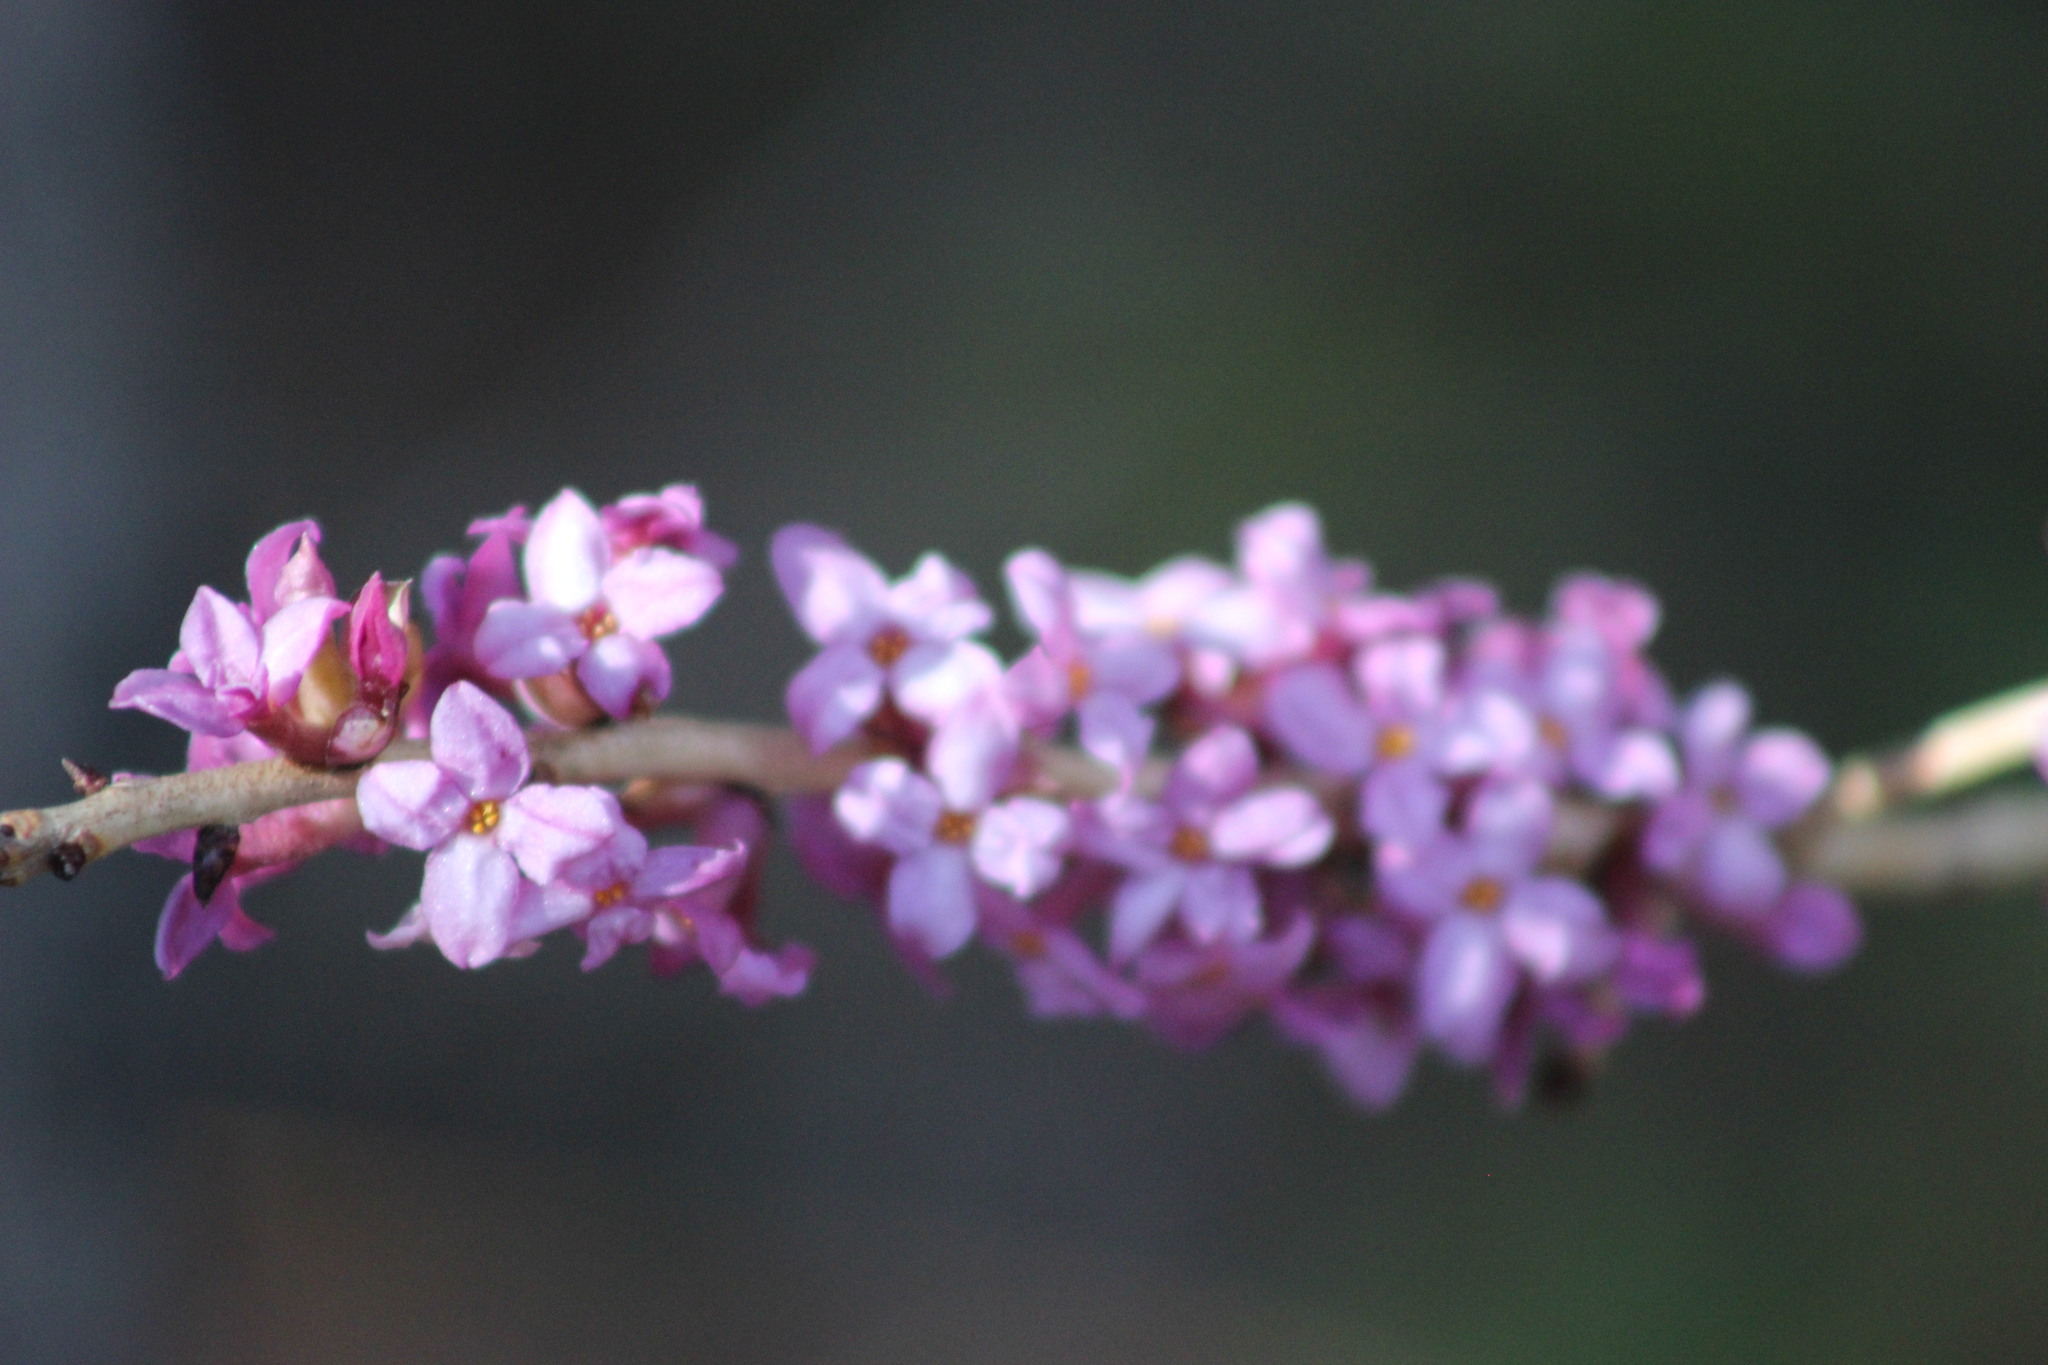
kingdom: Plantae
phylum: Tracheophyta
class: Magnoliopsida
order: Malvales
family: Thymelaeaceae
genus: Daphne
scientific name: Daphne mezereum
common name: Mezereon
